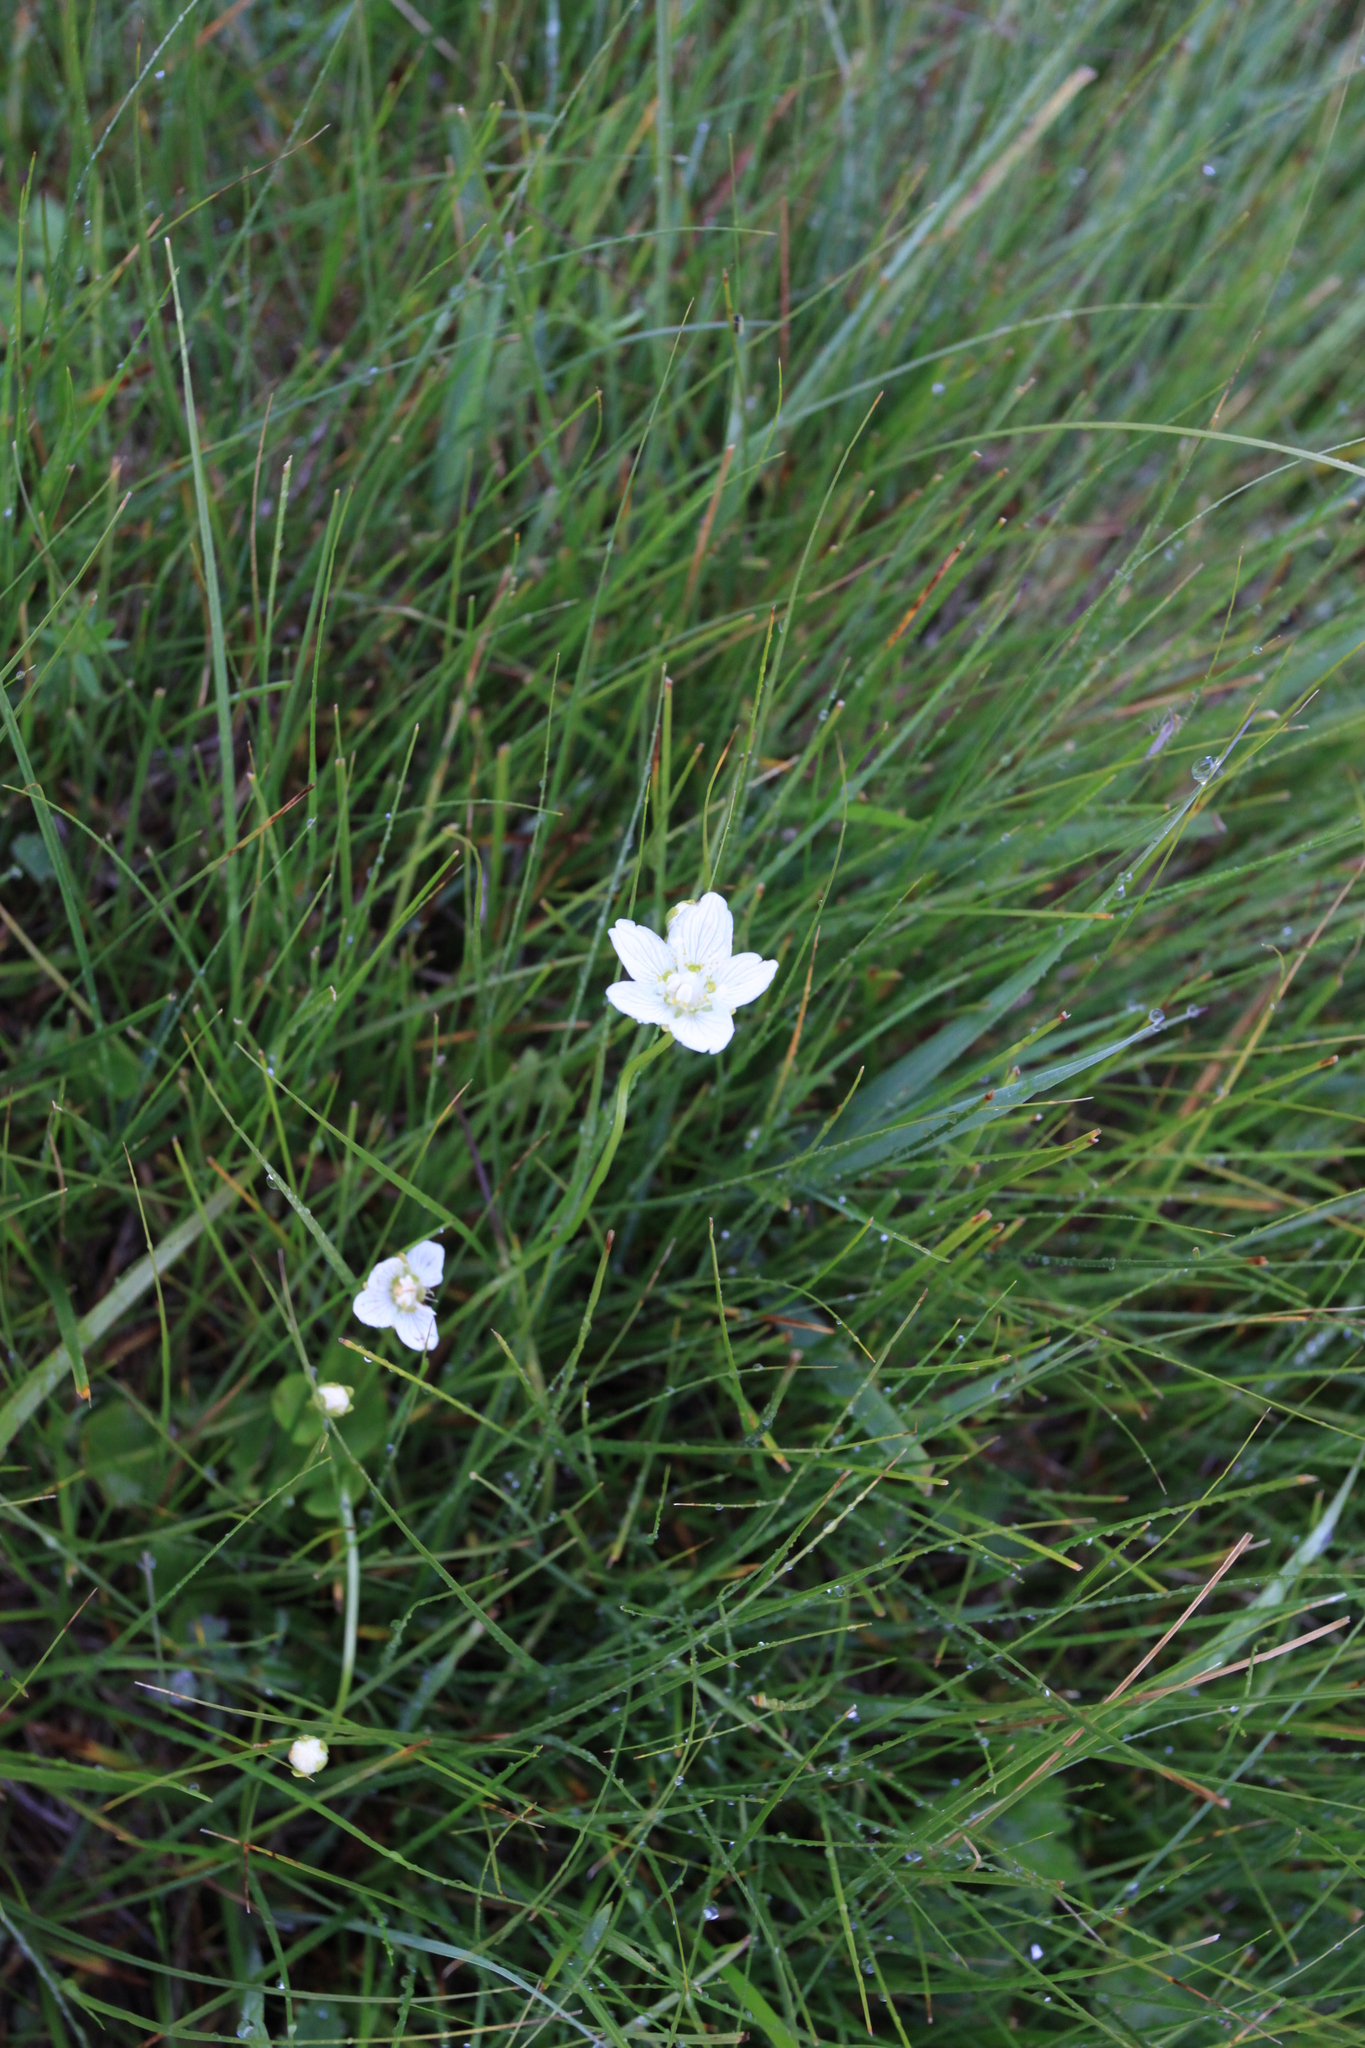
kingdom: Plantae
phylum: Tracheophyta
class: Magnoliopsida
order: Celastrales
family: Parnassiaceae
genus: Parnassia
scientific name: Parnassia palustris
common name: Grass-of-parnassus
